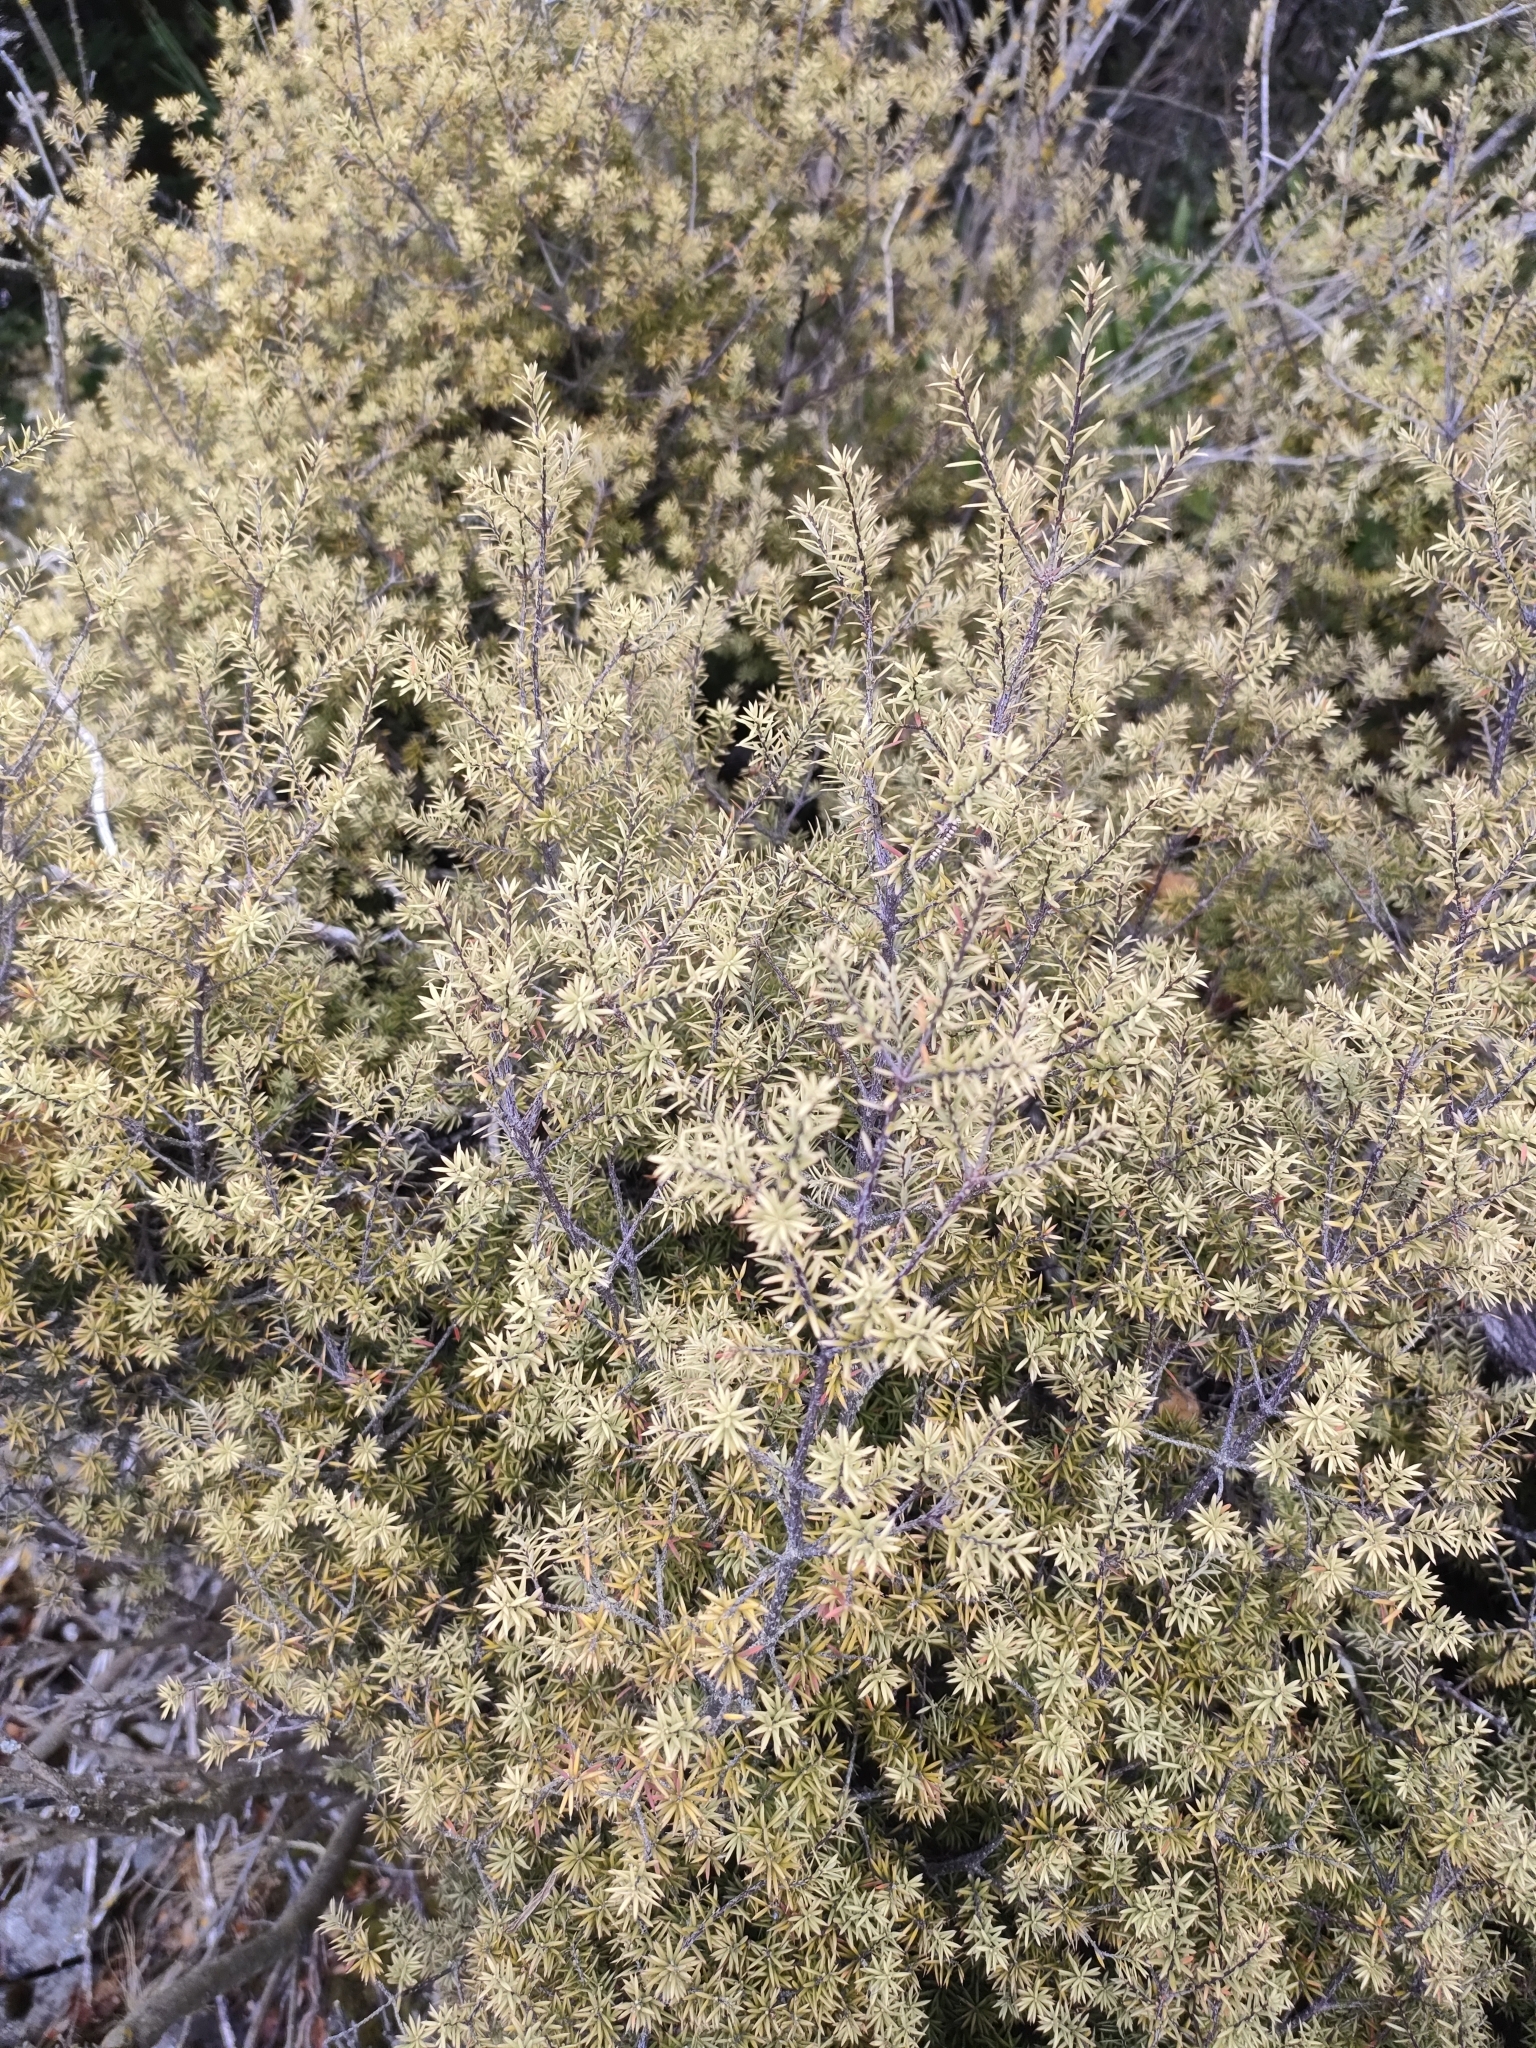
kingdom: Plantae
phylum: Tracheophyta
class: Magnoliopsida
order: Ericales
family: Ericaceae
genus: Leptecophylla
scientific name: Leptecophylla juniperina
